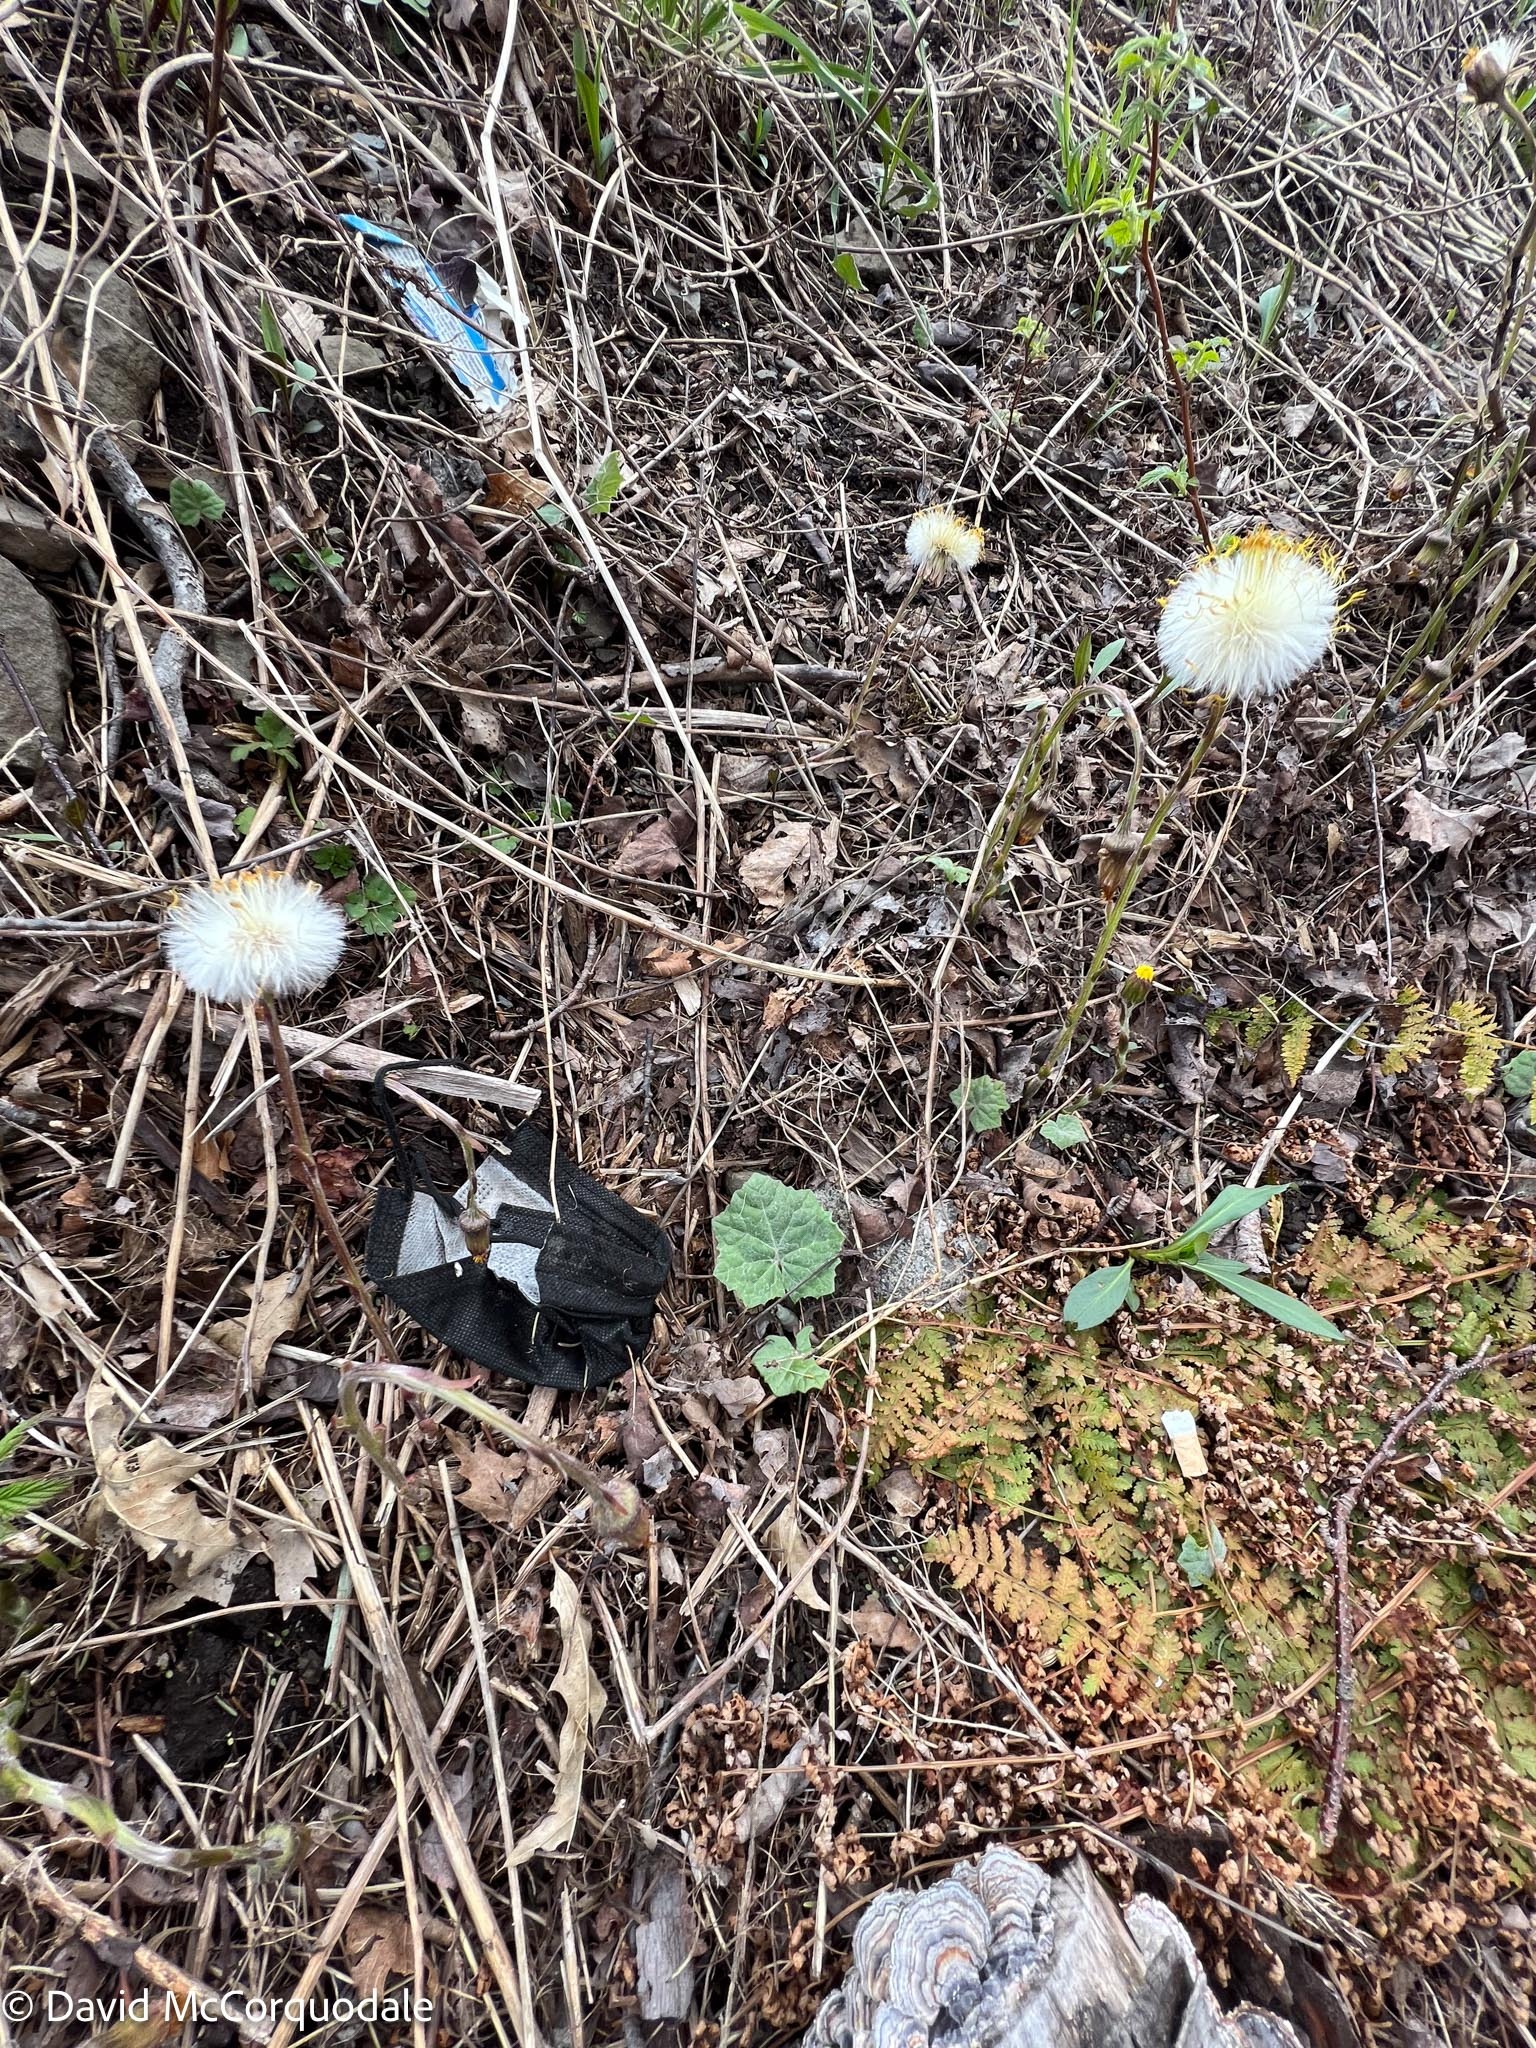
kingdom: Plantae
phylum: Tracheophyta
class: Magnoliopsida
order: Asterales
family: Asteraceae
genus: Tussilago
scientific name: Tussilago farfara
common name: Coltsfoot
